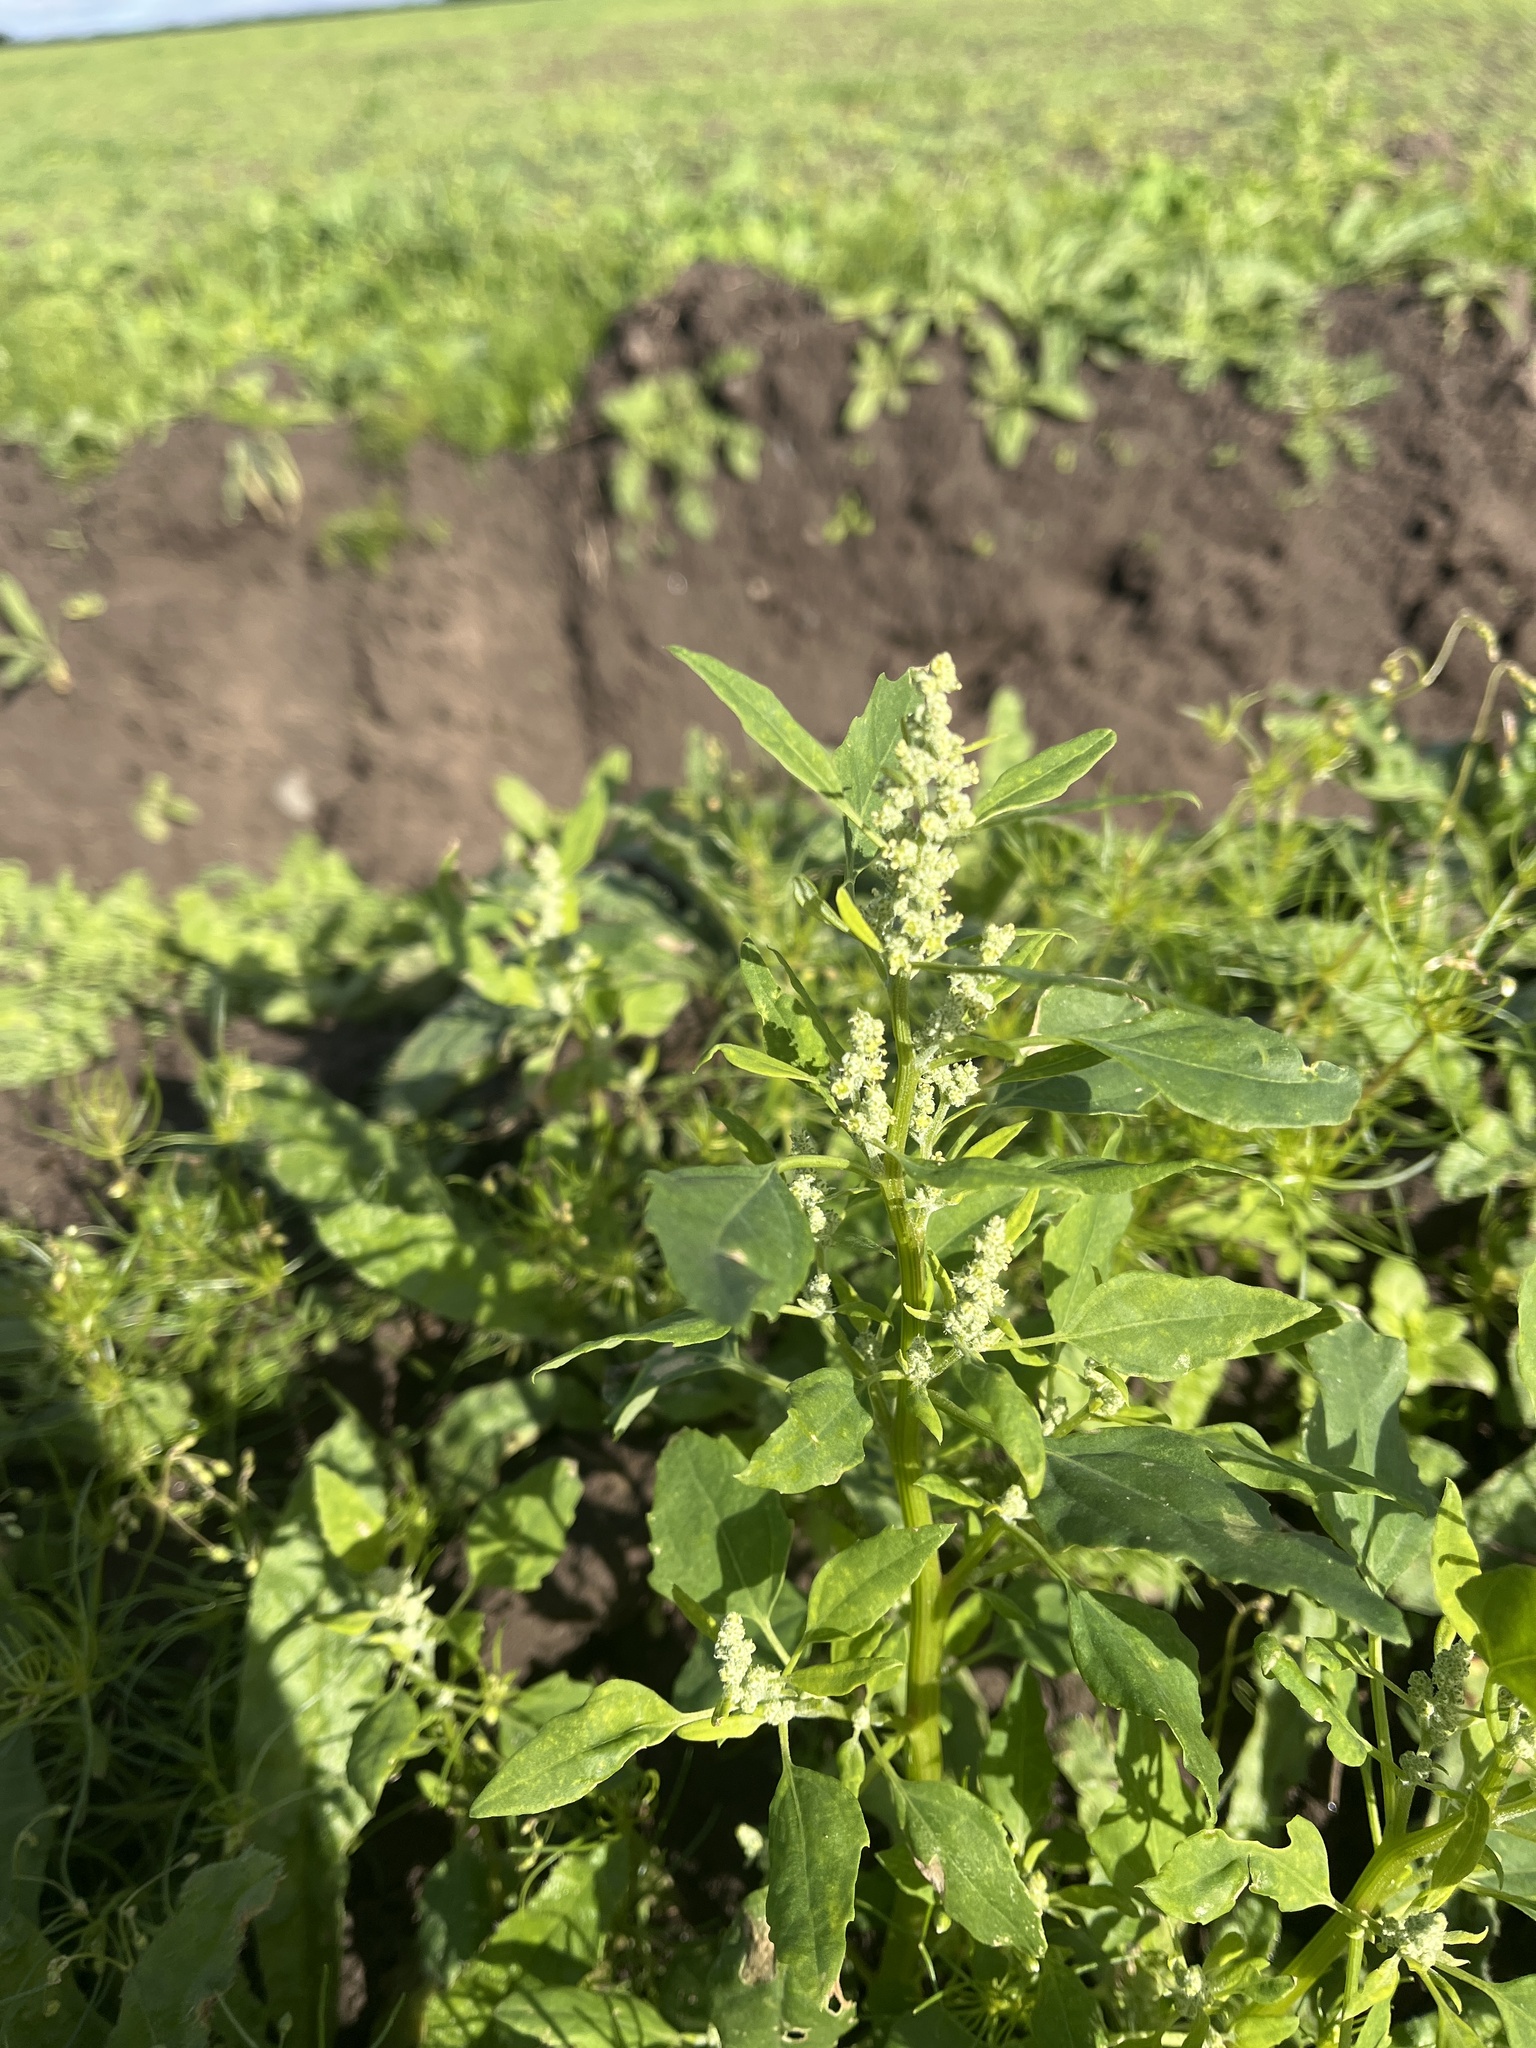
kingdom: Plantae
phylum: Tracheophyta
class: Magnoliopsida
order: Caryophyllales
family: Amaranthaceae
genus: Chenopodium
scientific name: Chenopodium album
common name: Fat-hen
